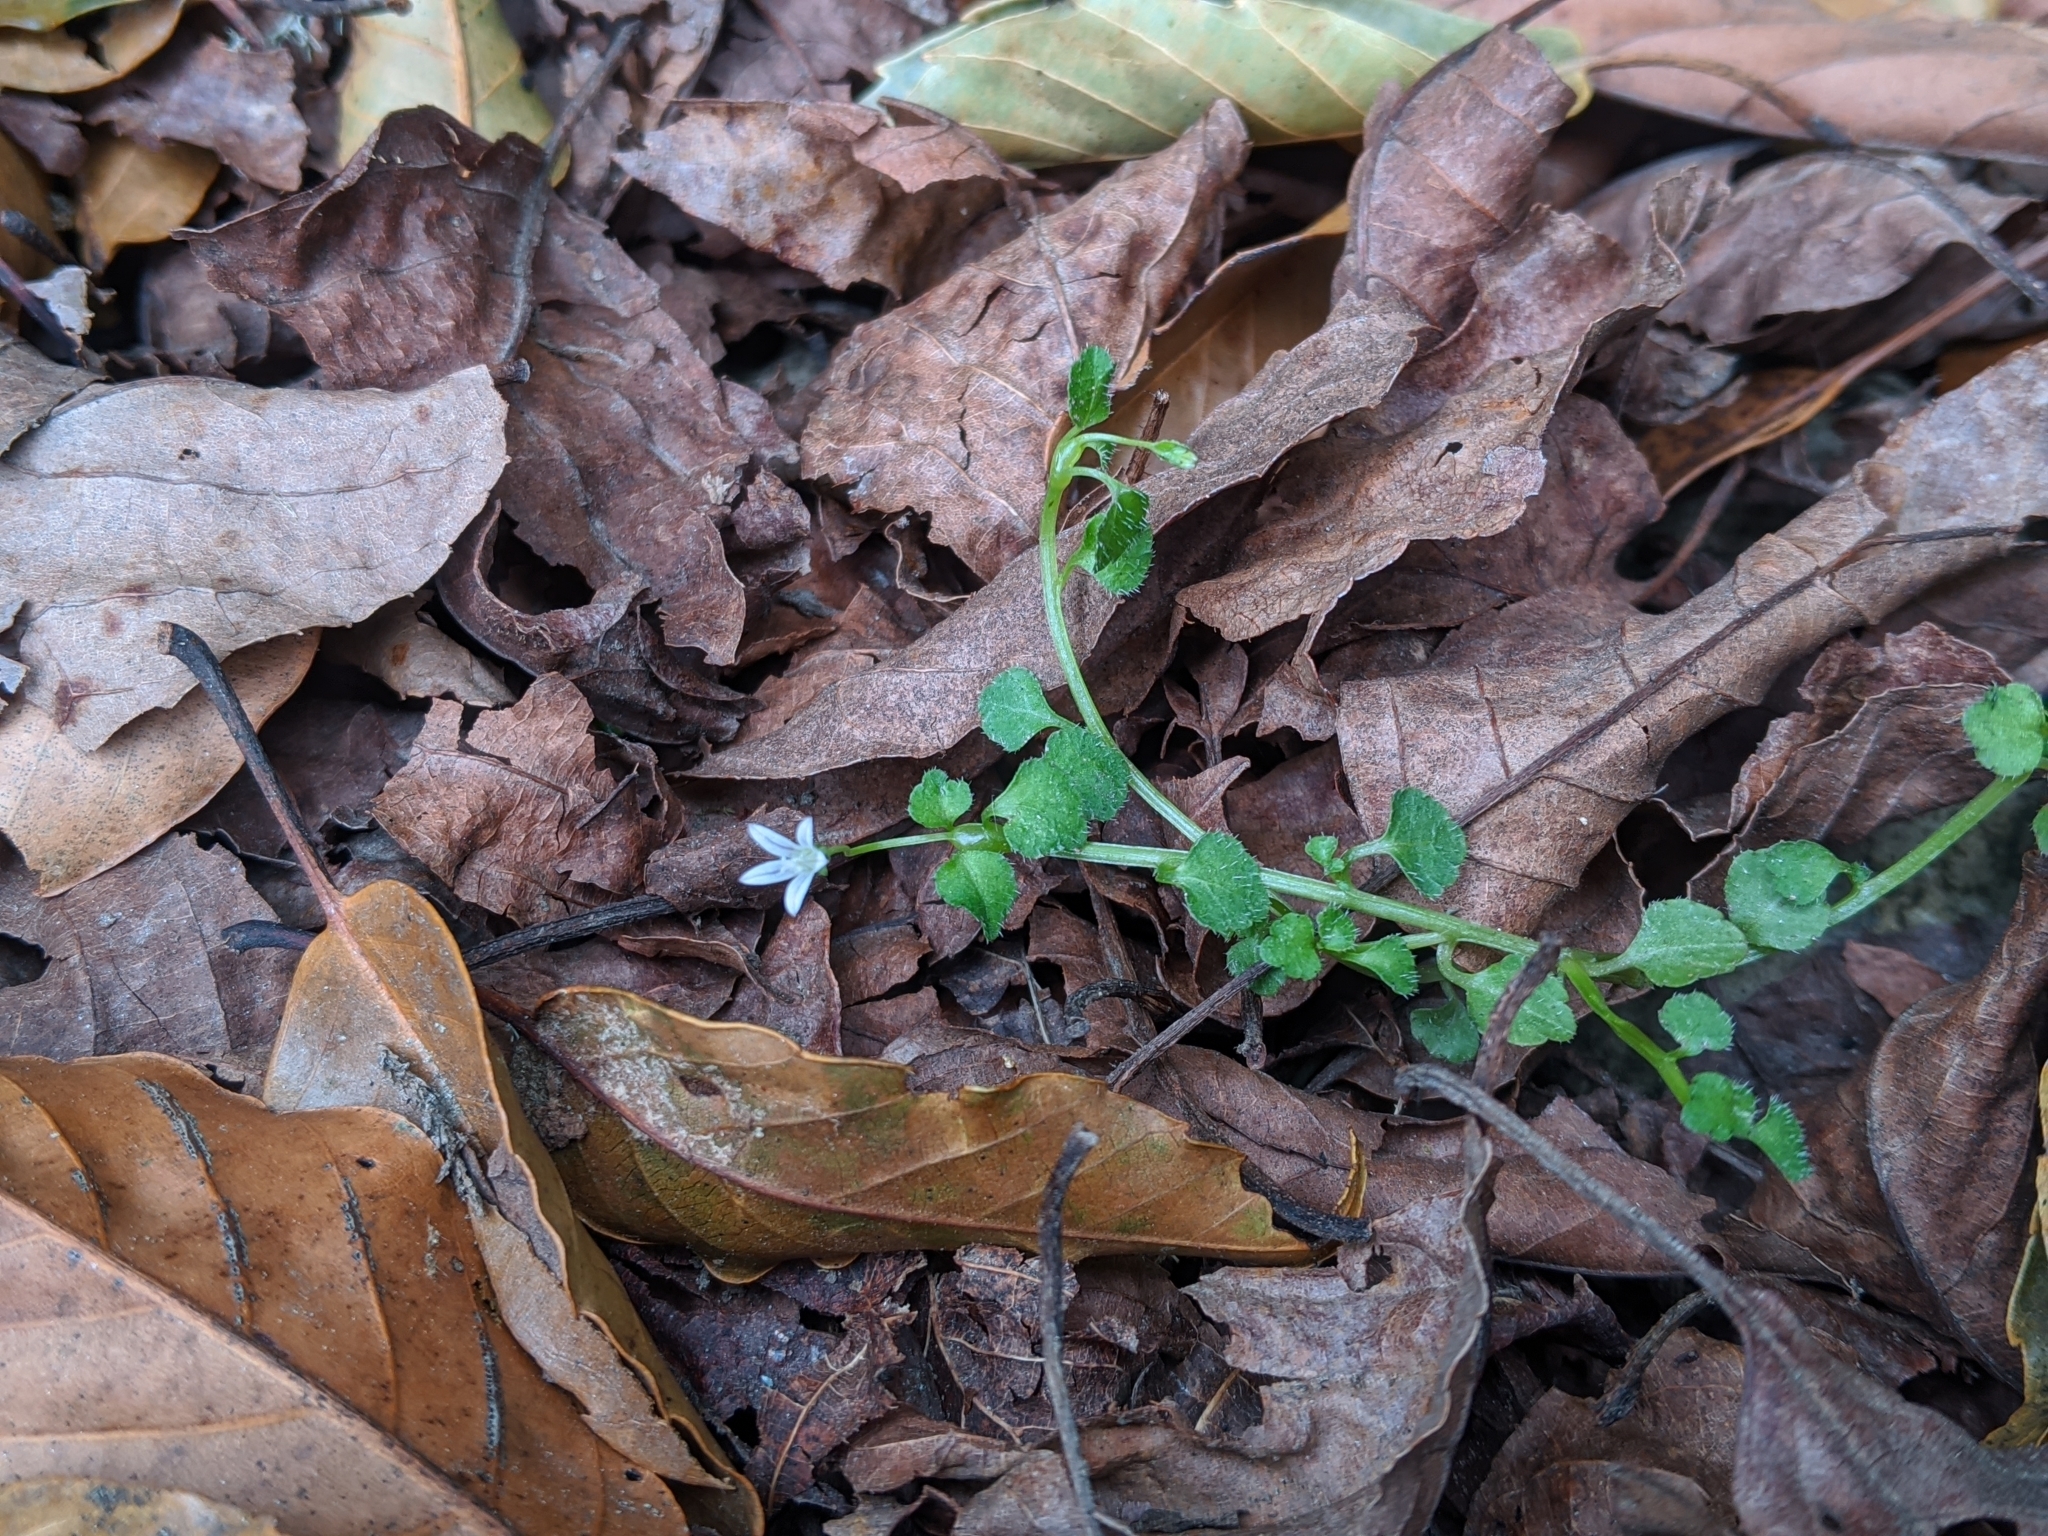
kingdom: Plantae
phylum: Tracheophyta
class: Magnoliopsida
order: Asterales
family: Campanulaceae
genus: Peracarpa
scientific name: Peracarpa carnosa
